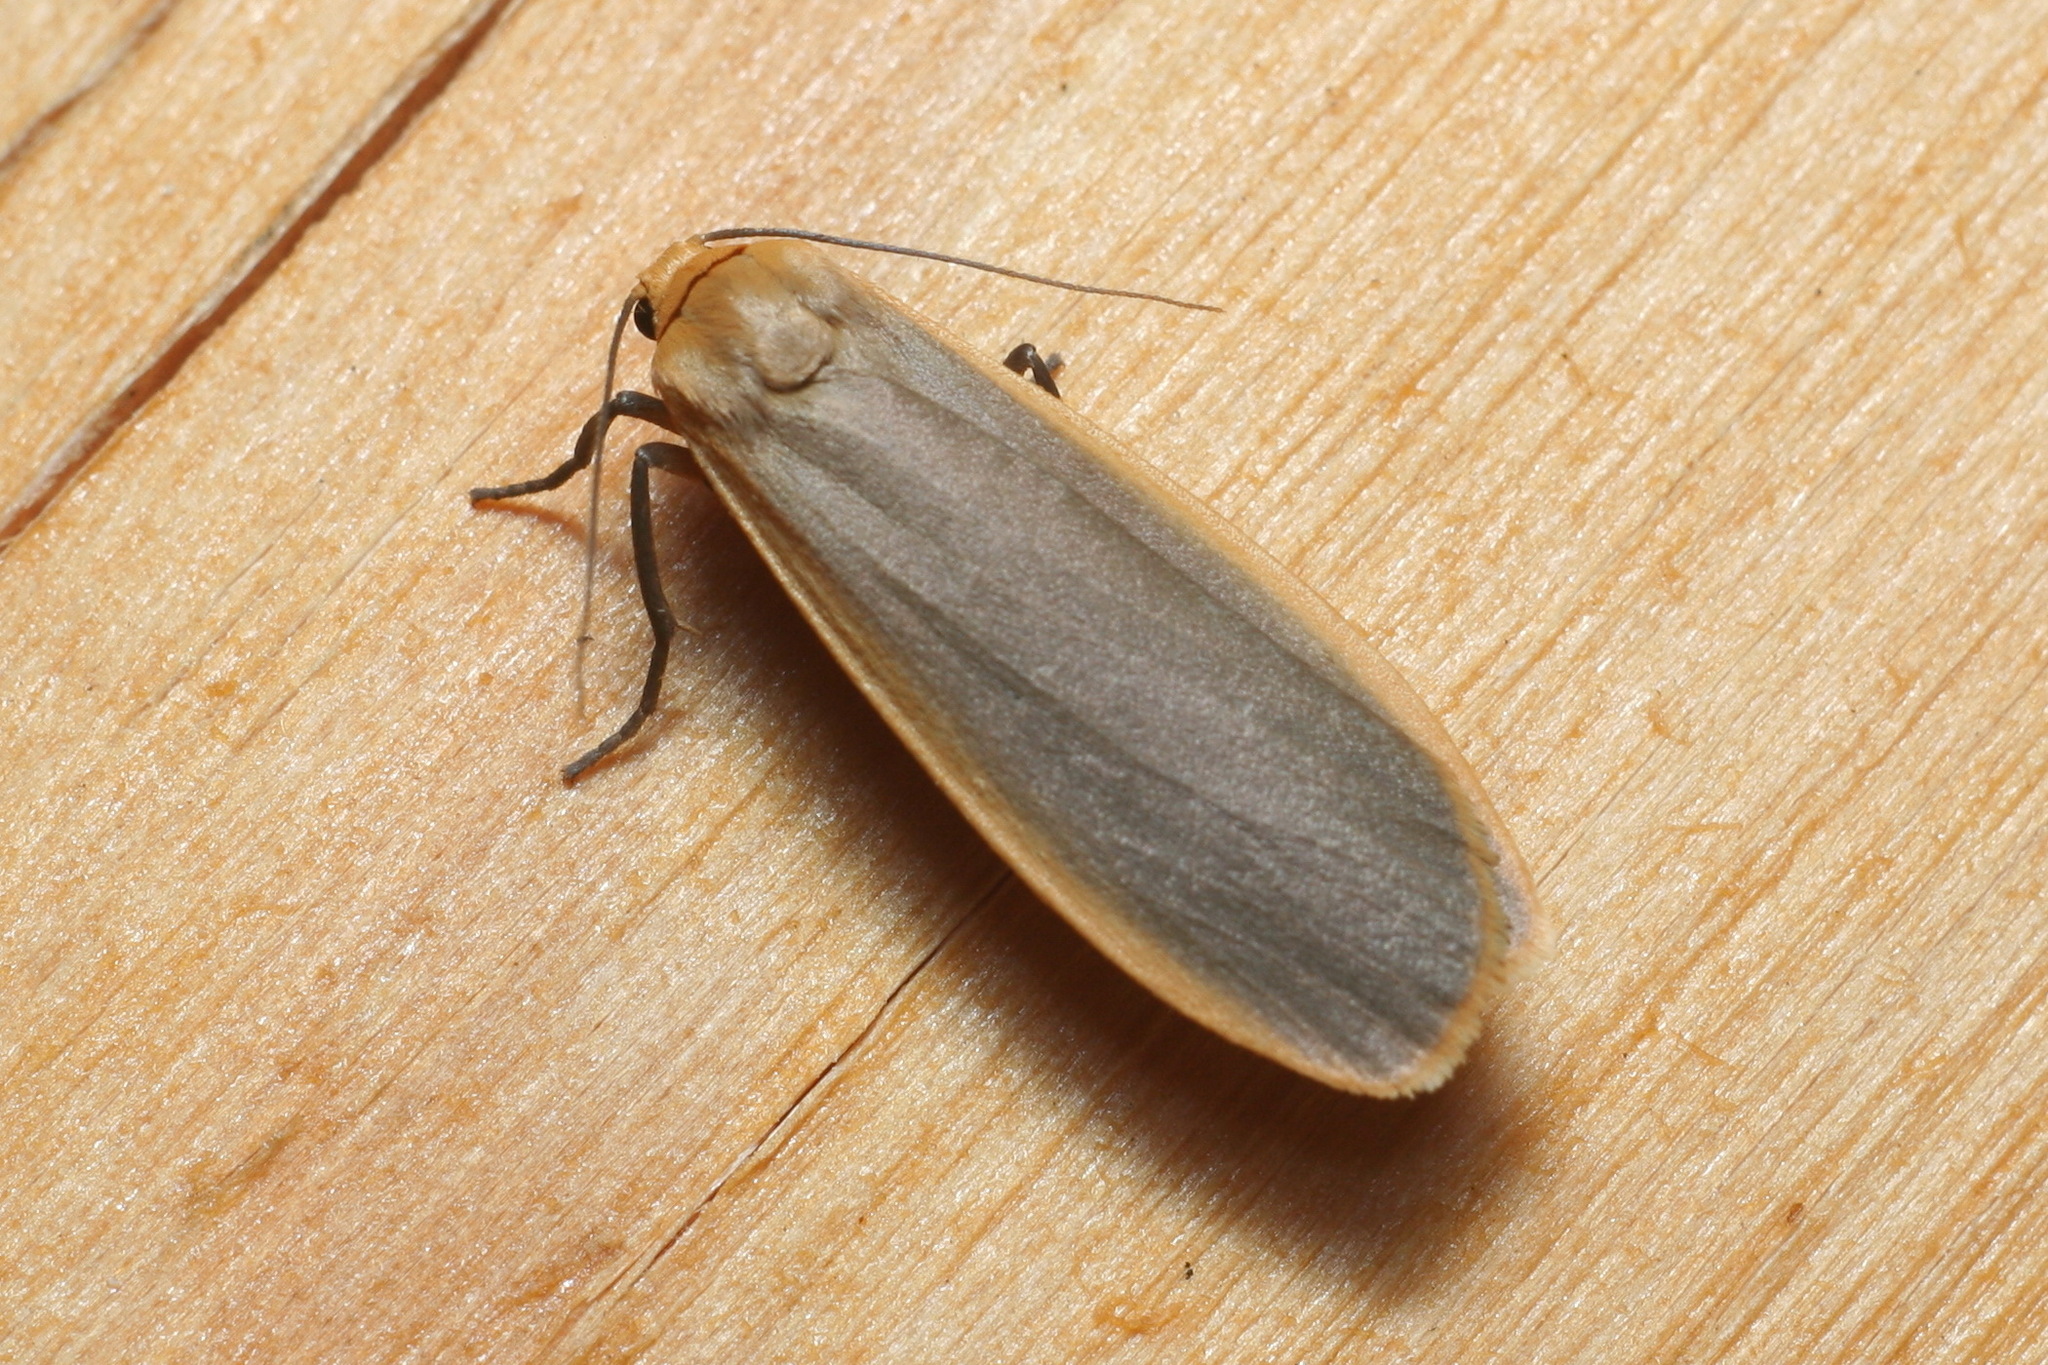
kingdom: Animalia
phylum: Arthropoda
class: Insecta
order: Lepidoptera
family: Erebidae
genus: Katha
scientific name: Katha depressa
